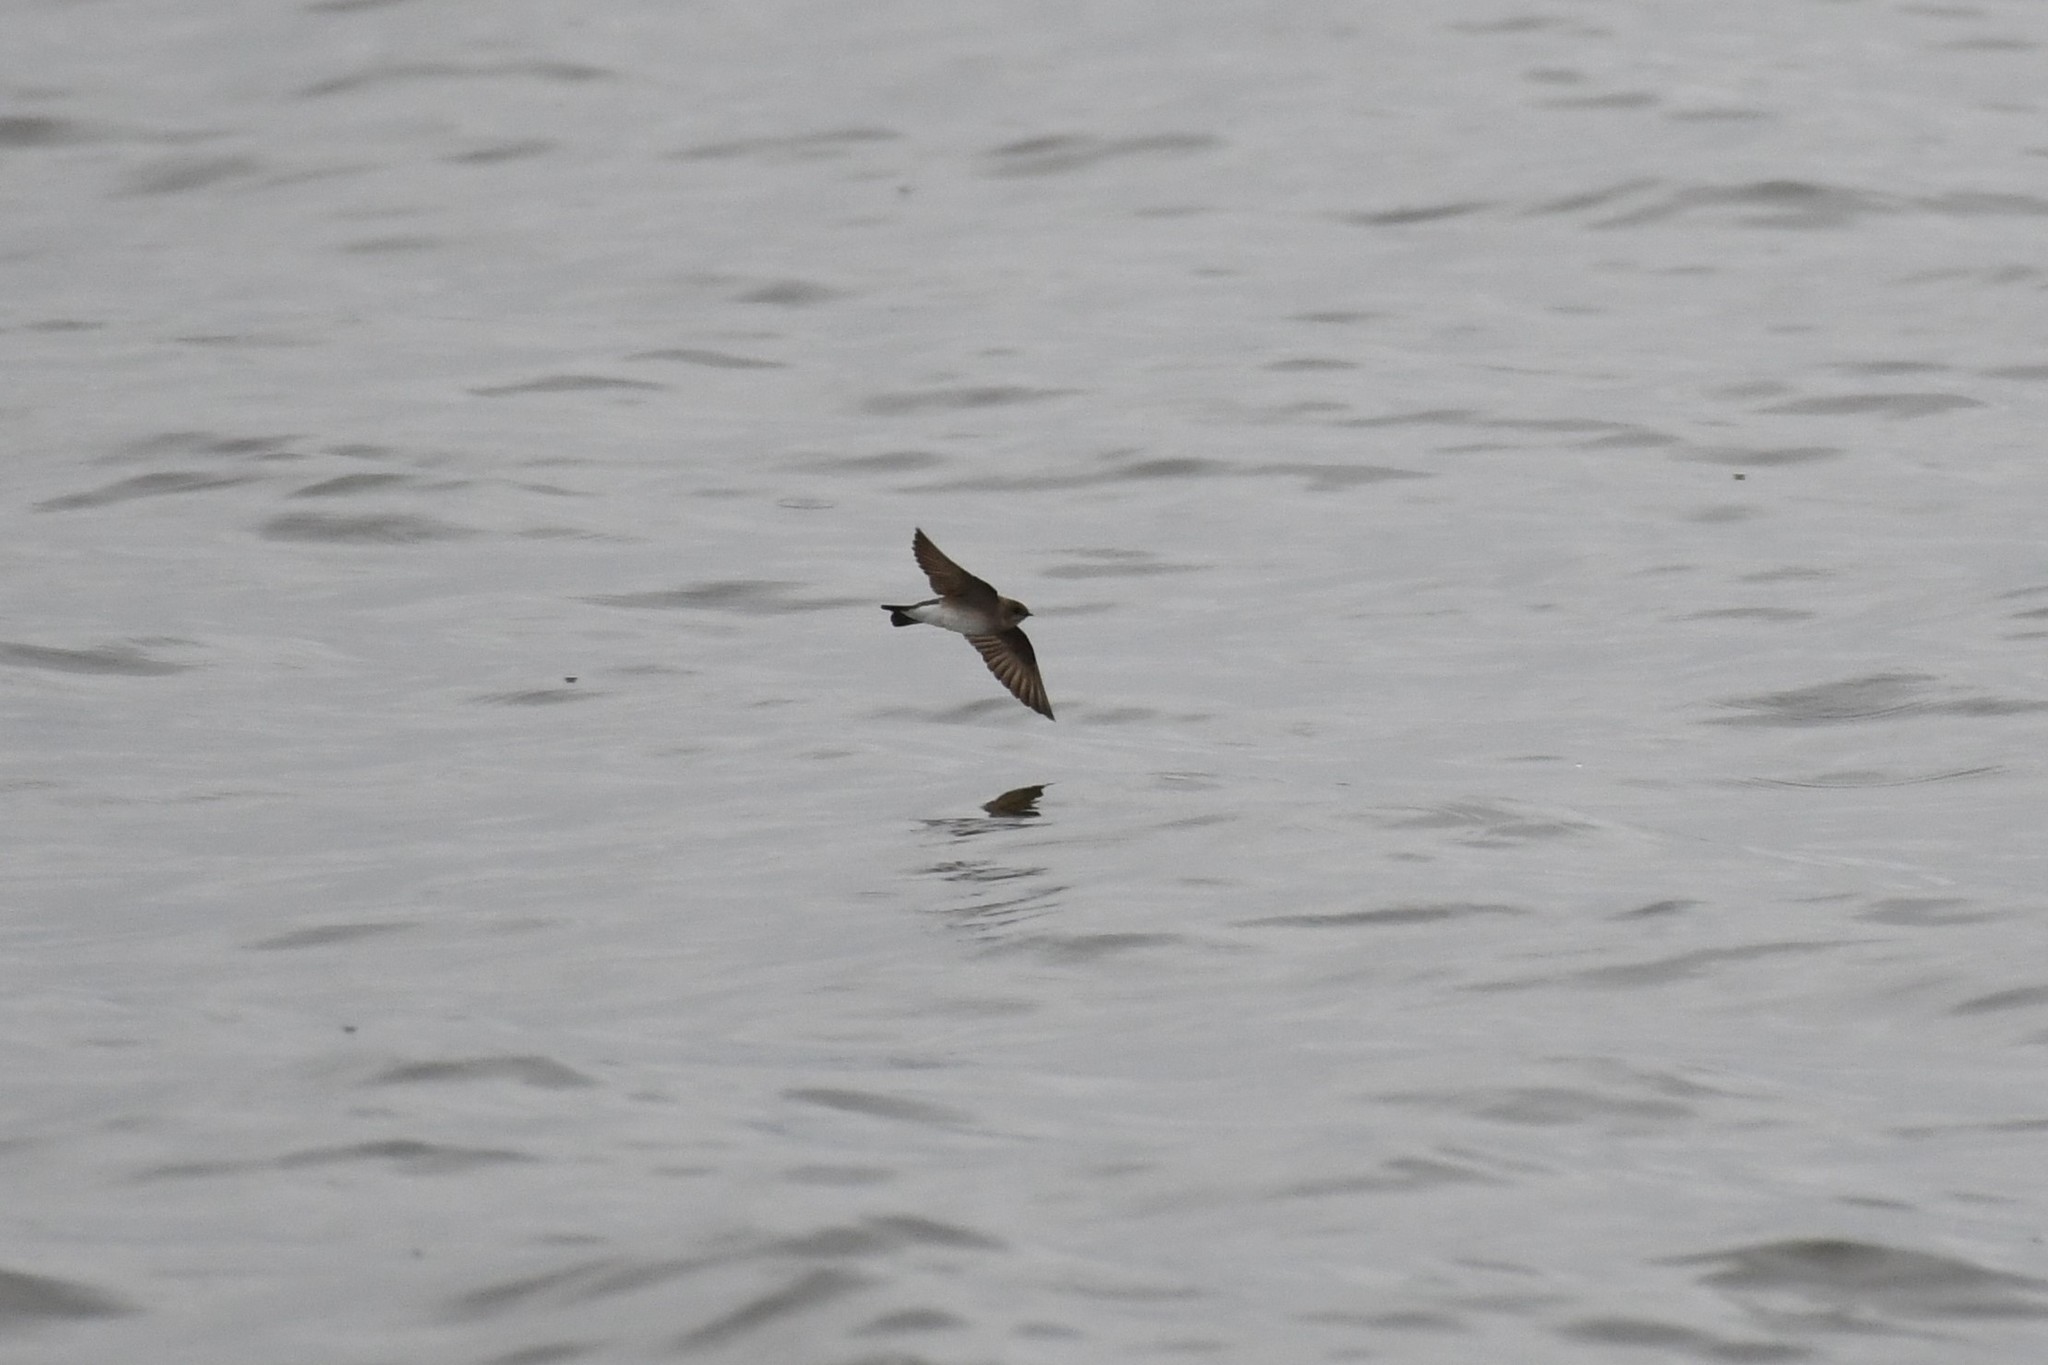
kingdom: Animalia
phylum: Chordata
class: Aves
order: Passeriformes
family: Hirundinidae
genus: Stelgidopteryx
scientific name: Stelgidopteryx serripennis
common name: Northern rough-winged swallow
